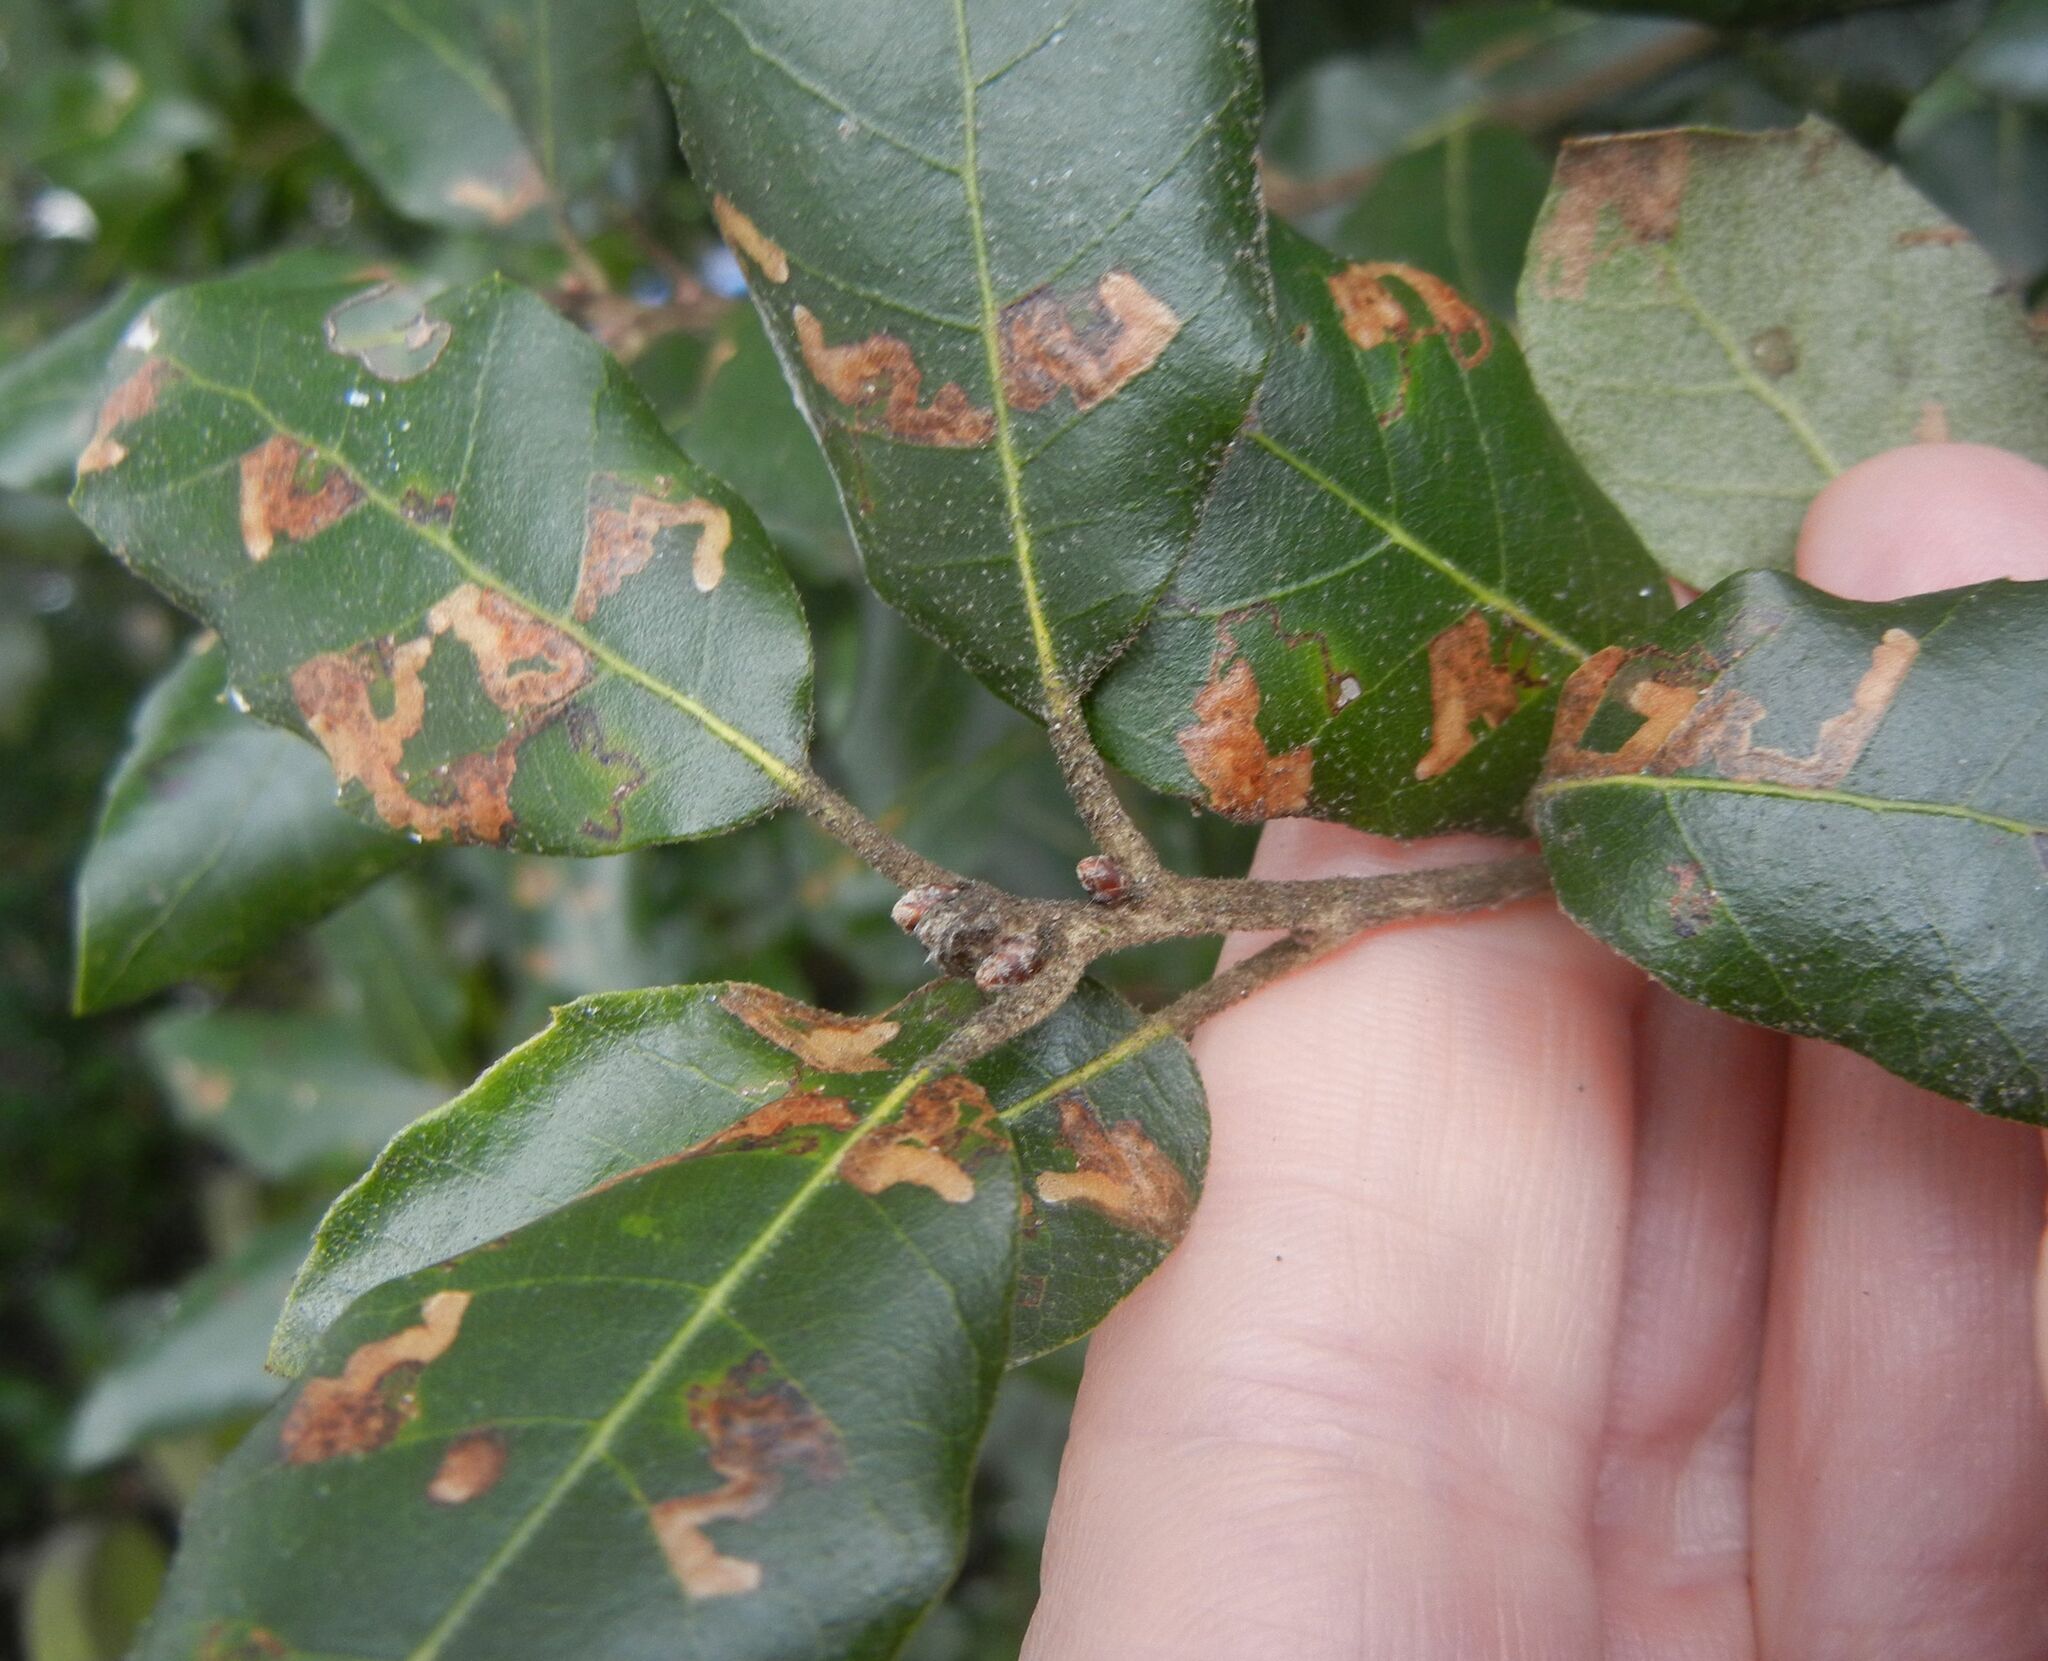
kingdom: Animalia
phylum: Arthropoda
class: Insecta
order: Lepidoptera
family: Nepticulidae
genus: Ectoedemia
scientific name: Ectoedemia heringella
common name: New holm-oak pigmy
